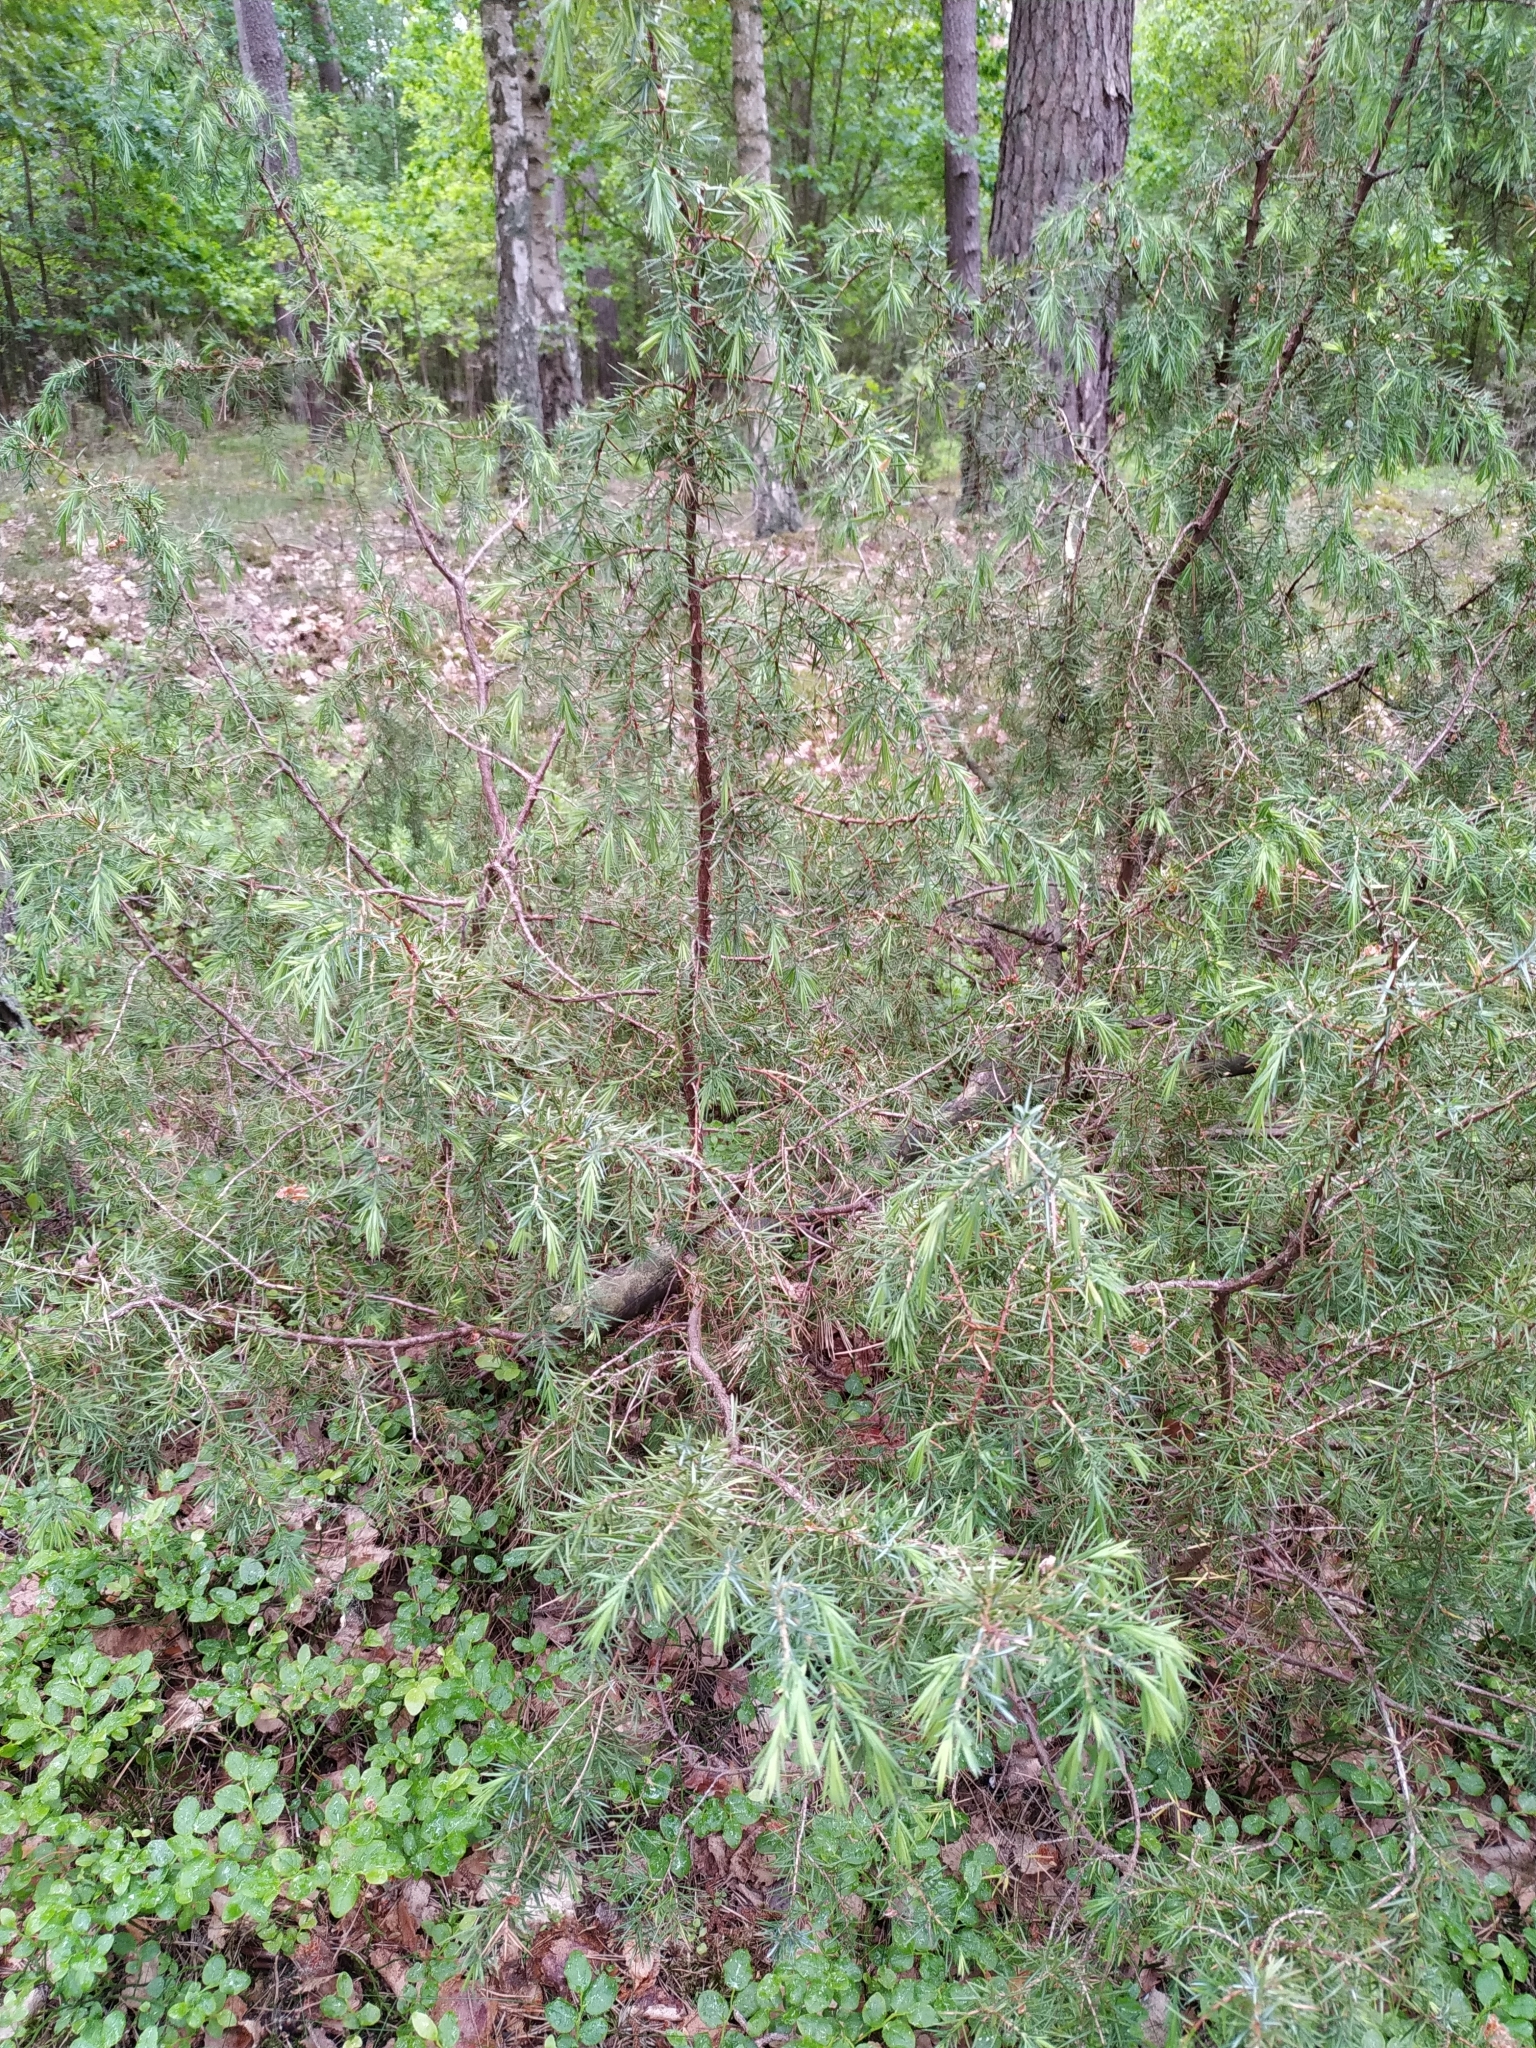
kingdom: Plantae
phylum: Tracheophyta
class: Pinopsida
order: Pinales
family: Cupressaceae
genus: Juniperus
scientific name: Juniperus communis
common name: Common juniper
